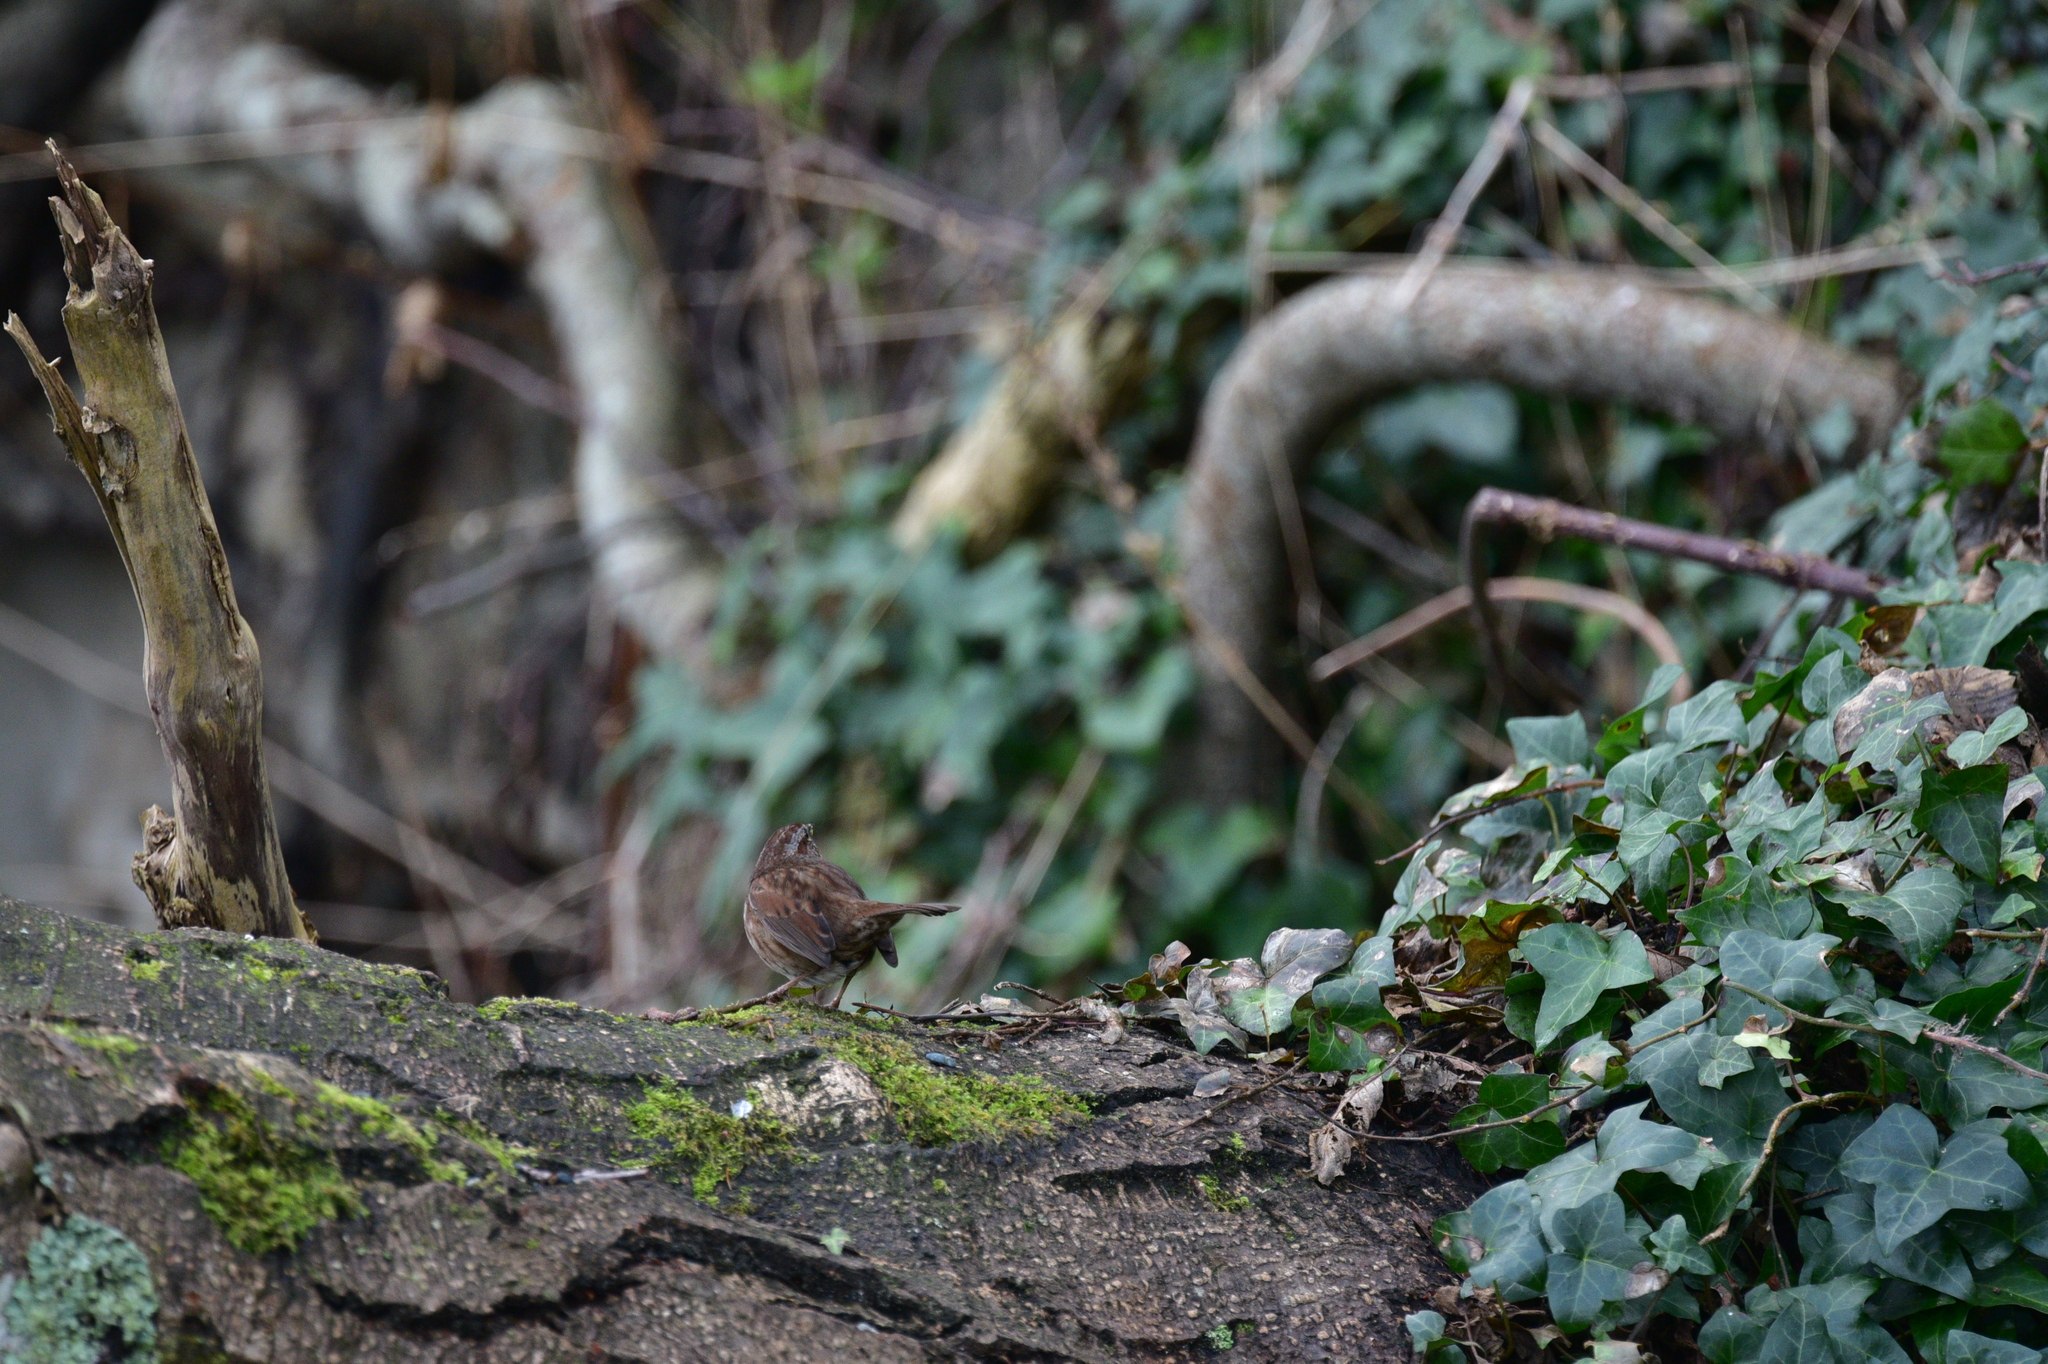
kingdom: Animalia
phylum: Chordata
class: Aves
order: Passeriformes
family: Passerellidae
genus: Melospiza
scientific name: Melospiza melodia
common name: Song sparrow
